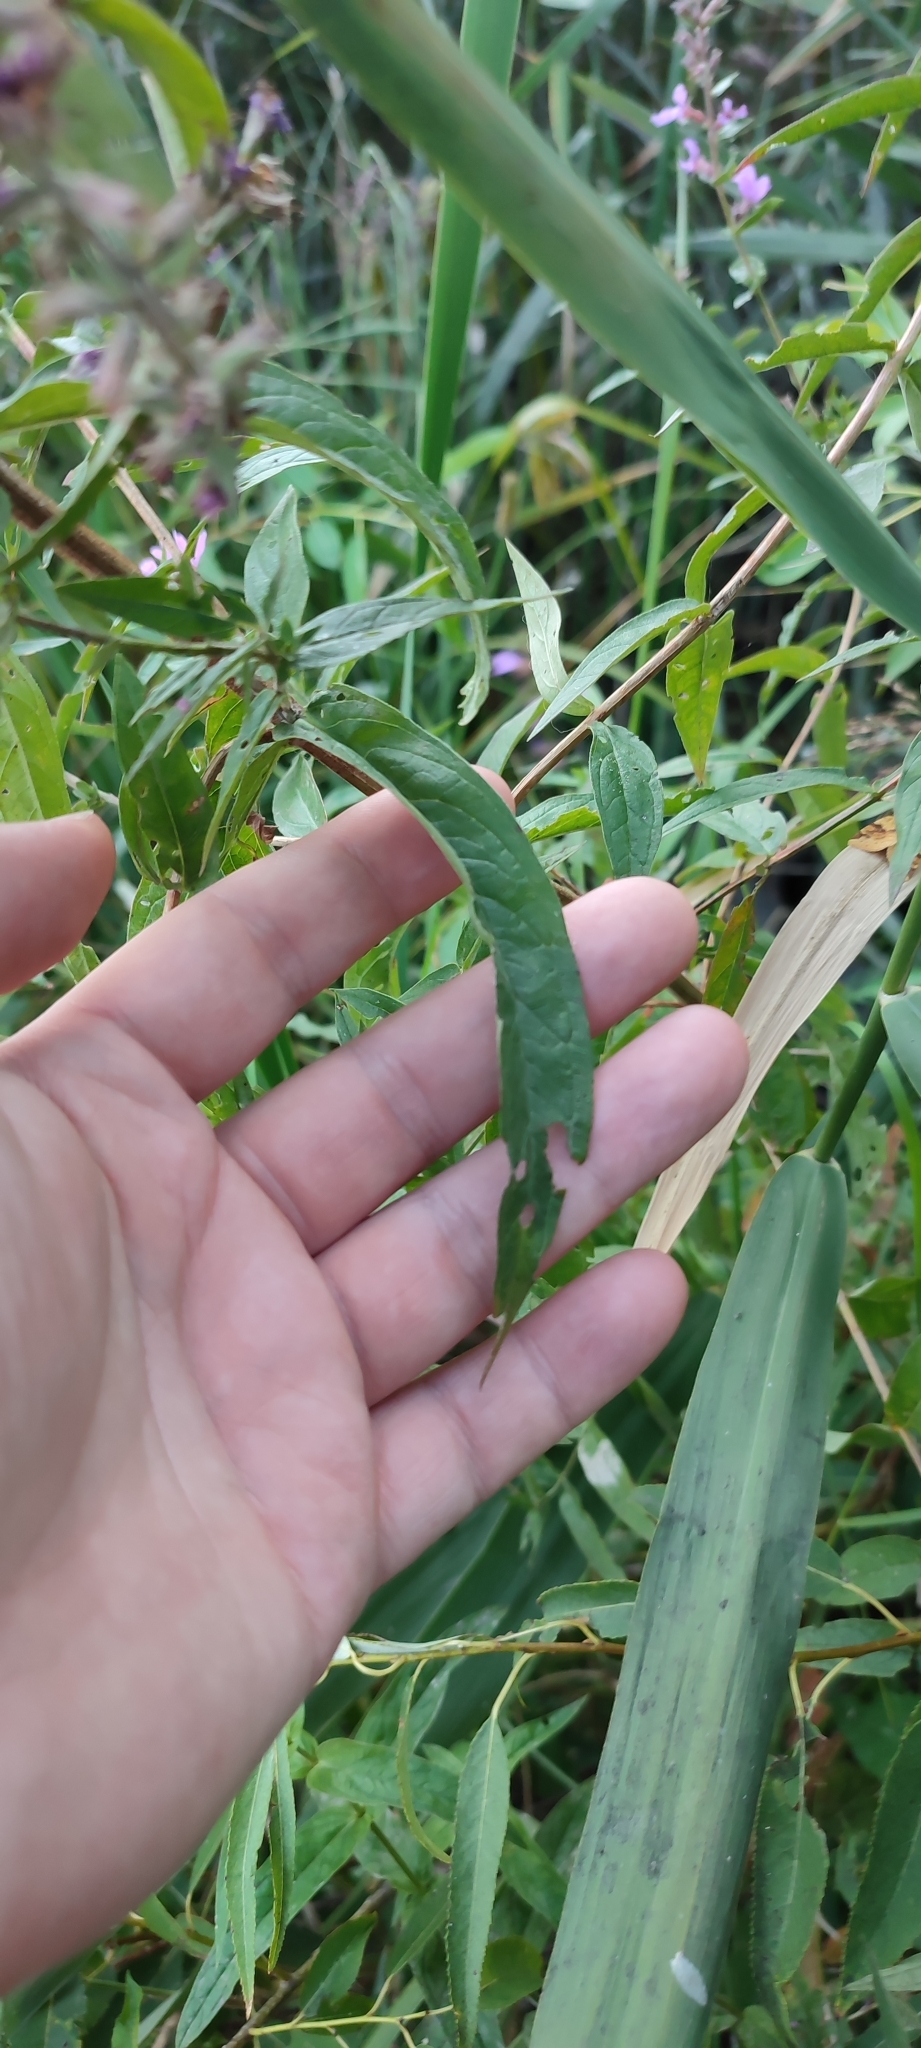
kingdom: Plantae
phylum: Tracheophyta
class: Magnoliopsida
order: Myrtales
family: Lythraceae
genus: Lythrum
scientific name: Lythrum salicaria
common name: Purple loosestrife
